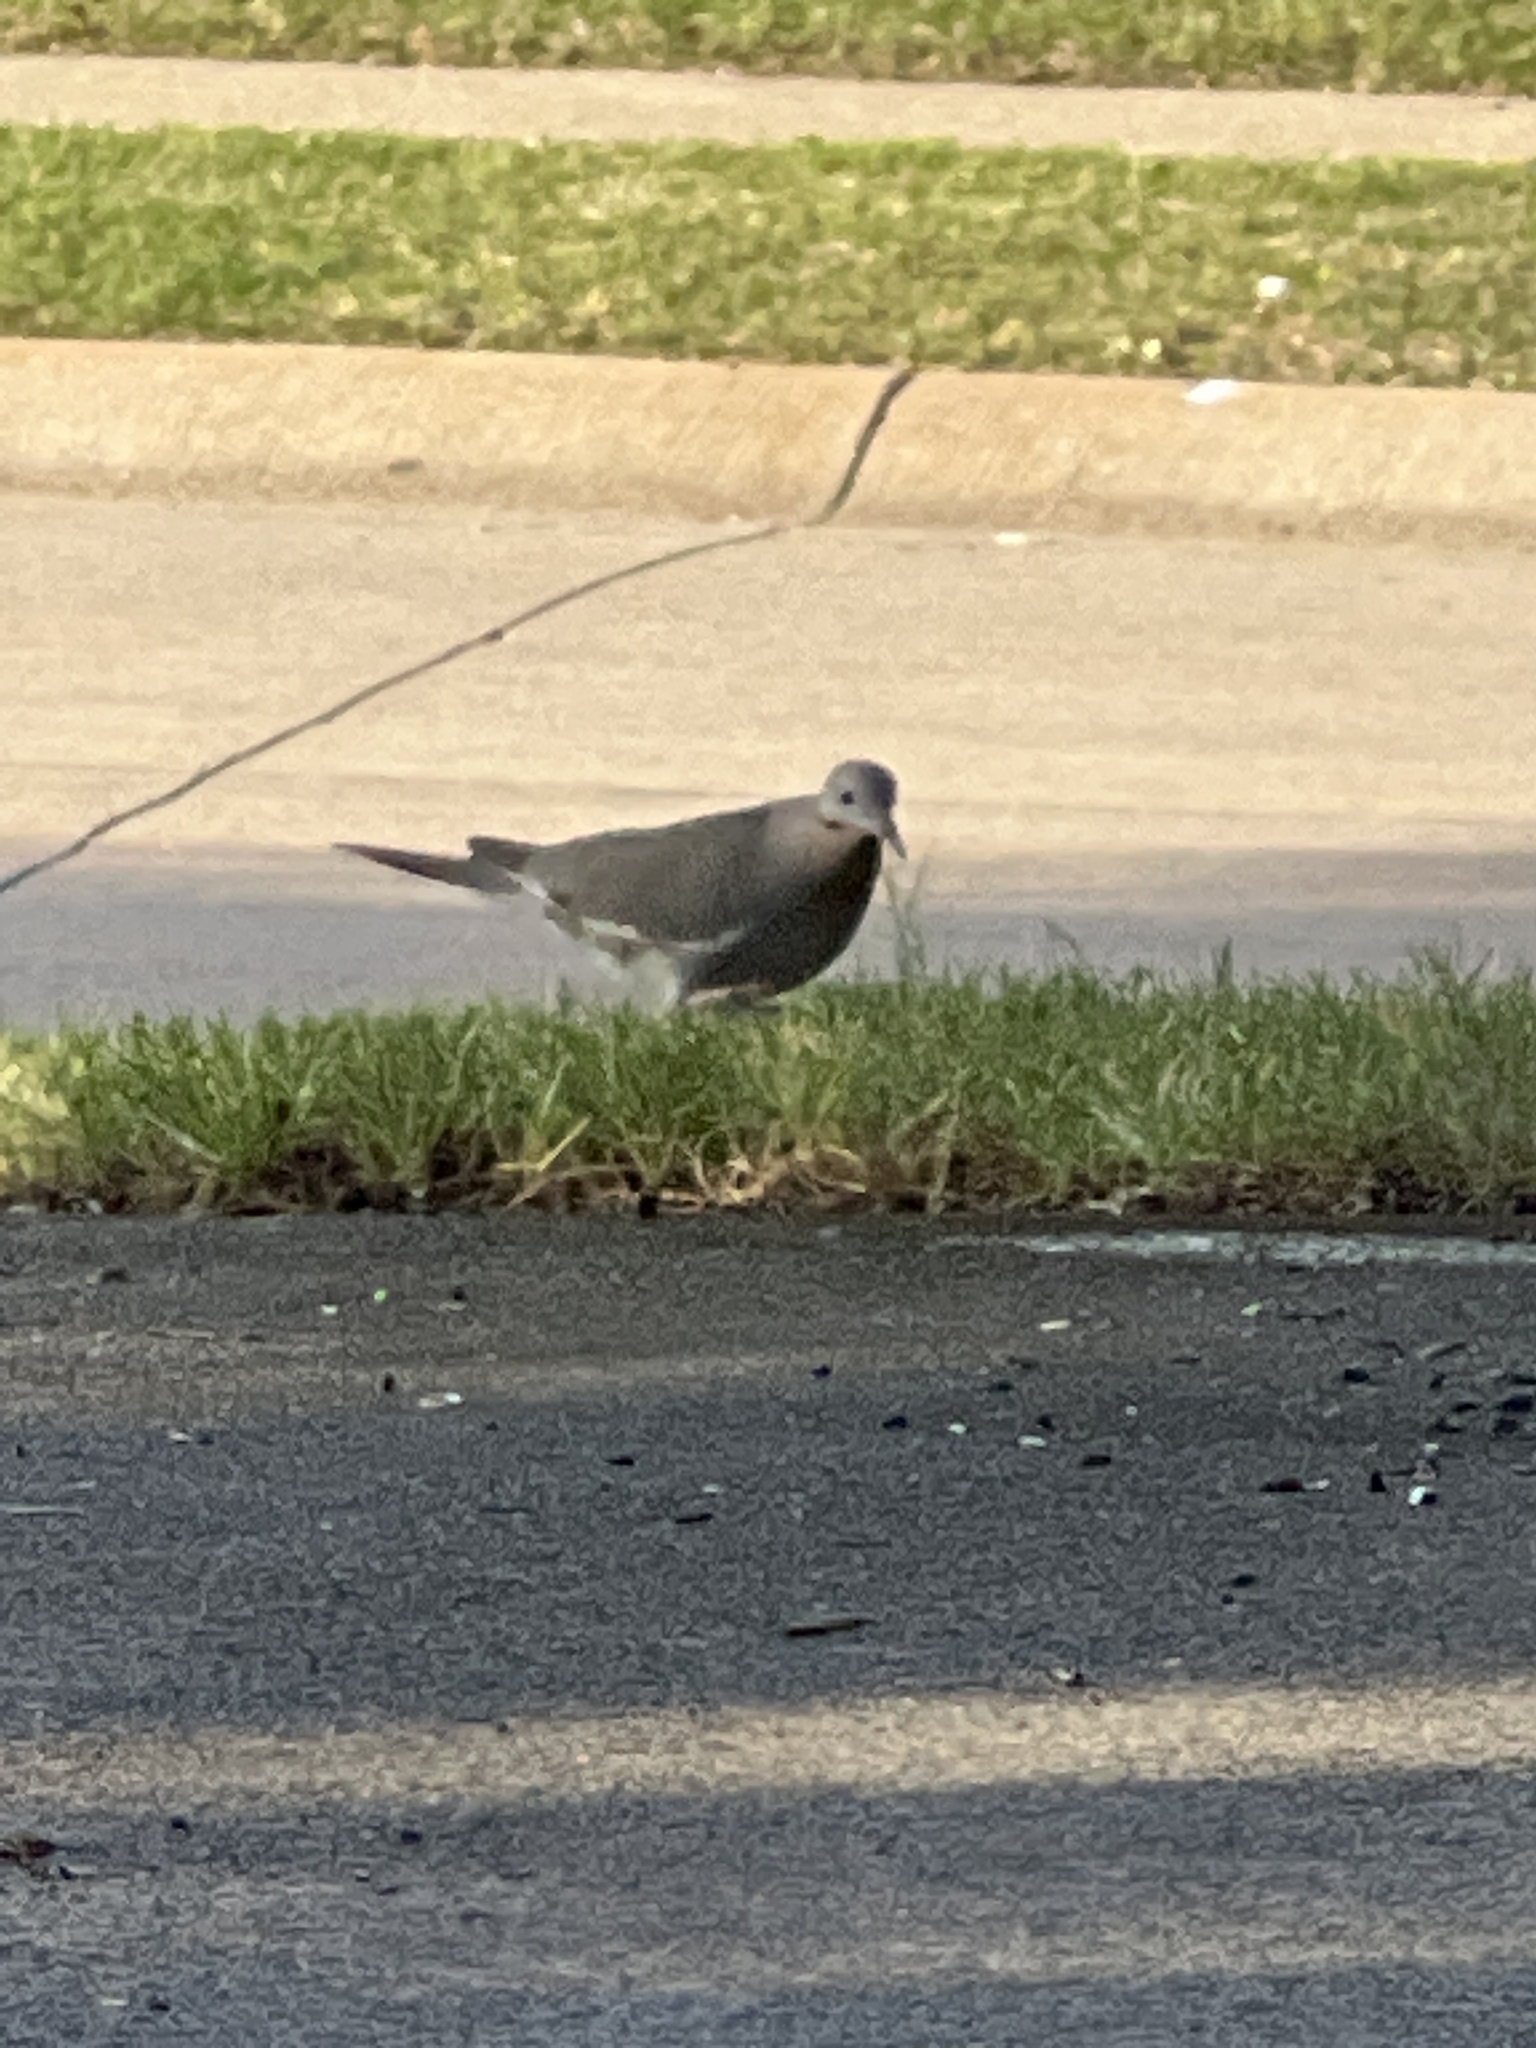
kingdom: Animalia
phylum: Chordata
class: Aves
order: Columbiformes
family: Columbidae
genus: Zenaida
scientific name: Zenaida asiatica
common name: White-winged dove
